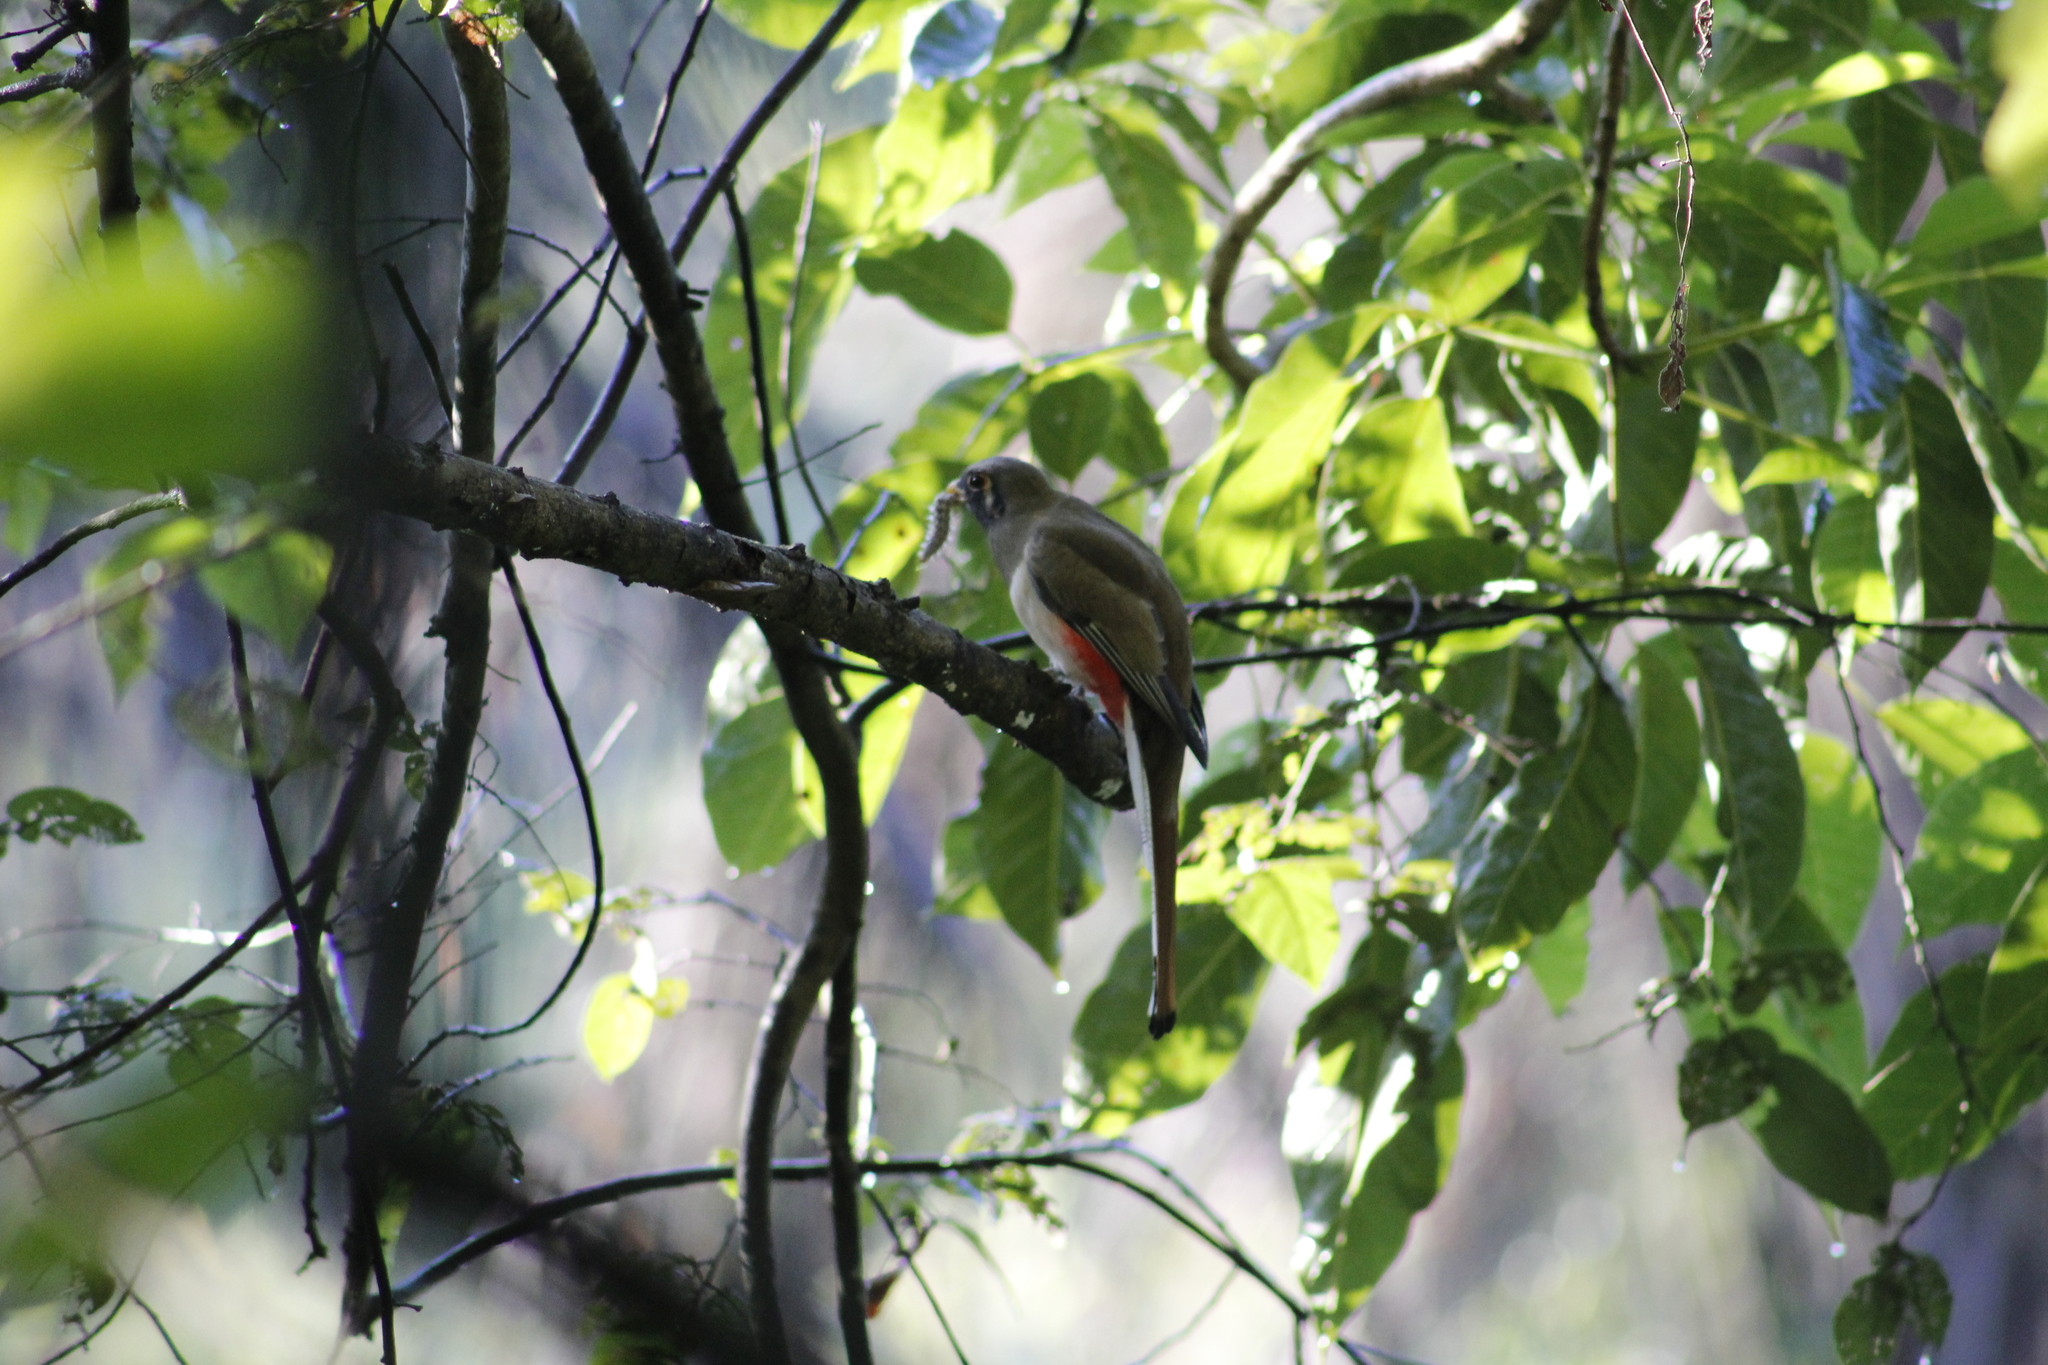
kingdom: Animalia
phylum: Chordata
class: Aves
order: Trogoniformes
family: Trogonidae
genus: Trogon
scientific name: Trogon elegans
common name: Elegant trogon
